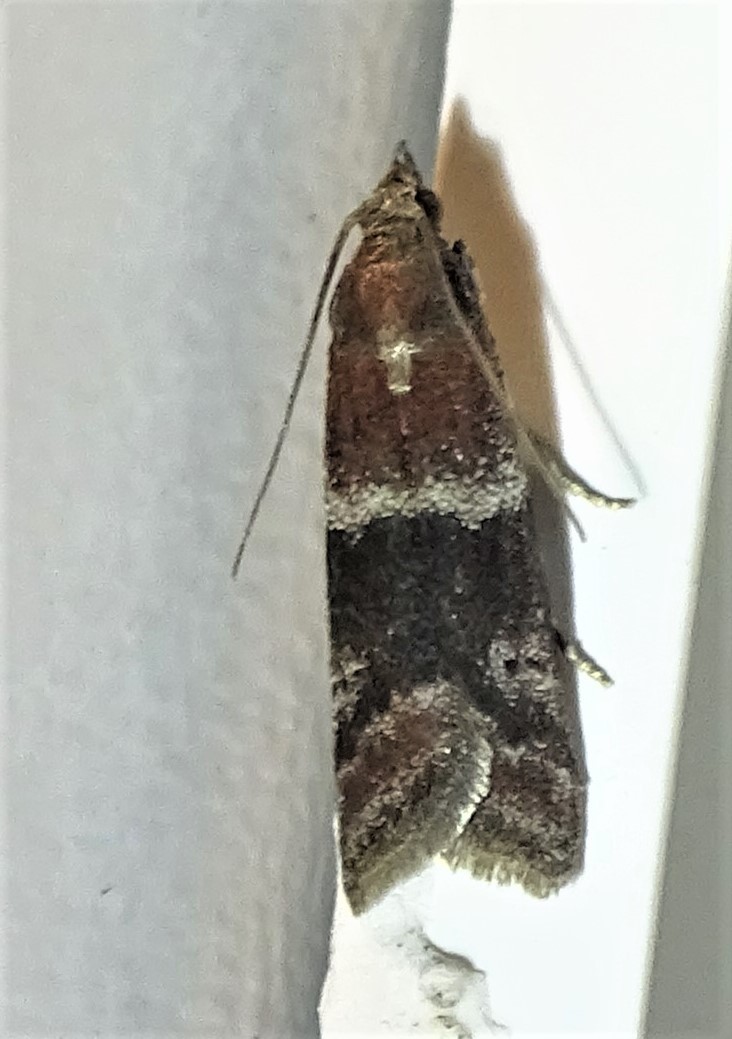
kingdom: Animalia
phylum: Arthropoda
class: Insecta
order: Lepidoptera
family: Pyralidae
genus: Moodna
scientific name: Moodna ostrinella
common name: Darker moodna moth
